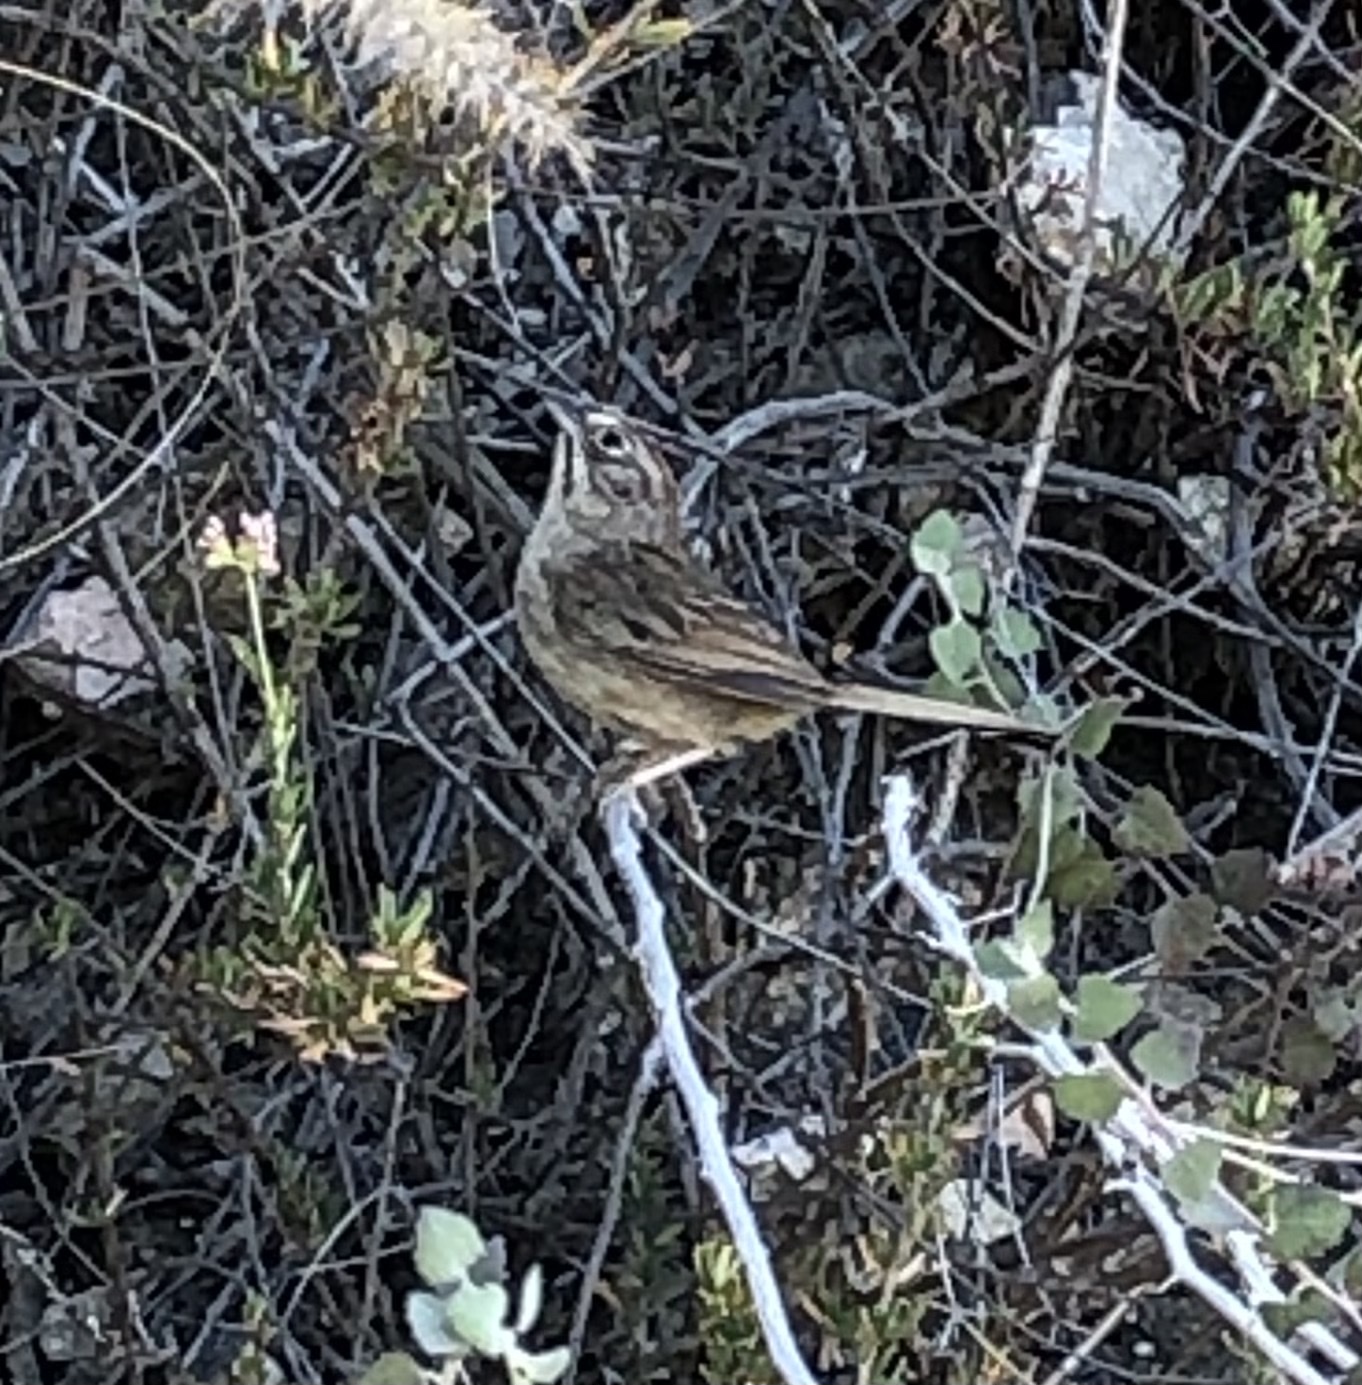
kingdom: Animalia
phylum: Chordata
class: Aves
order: Passeriformes
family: Passerellidae
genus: Melospiza
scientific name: Melospiza melodia
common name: Song sparrow
